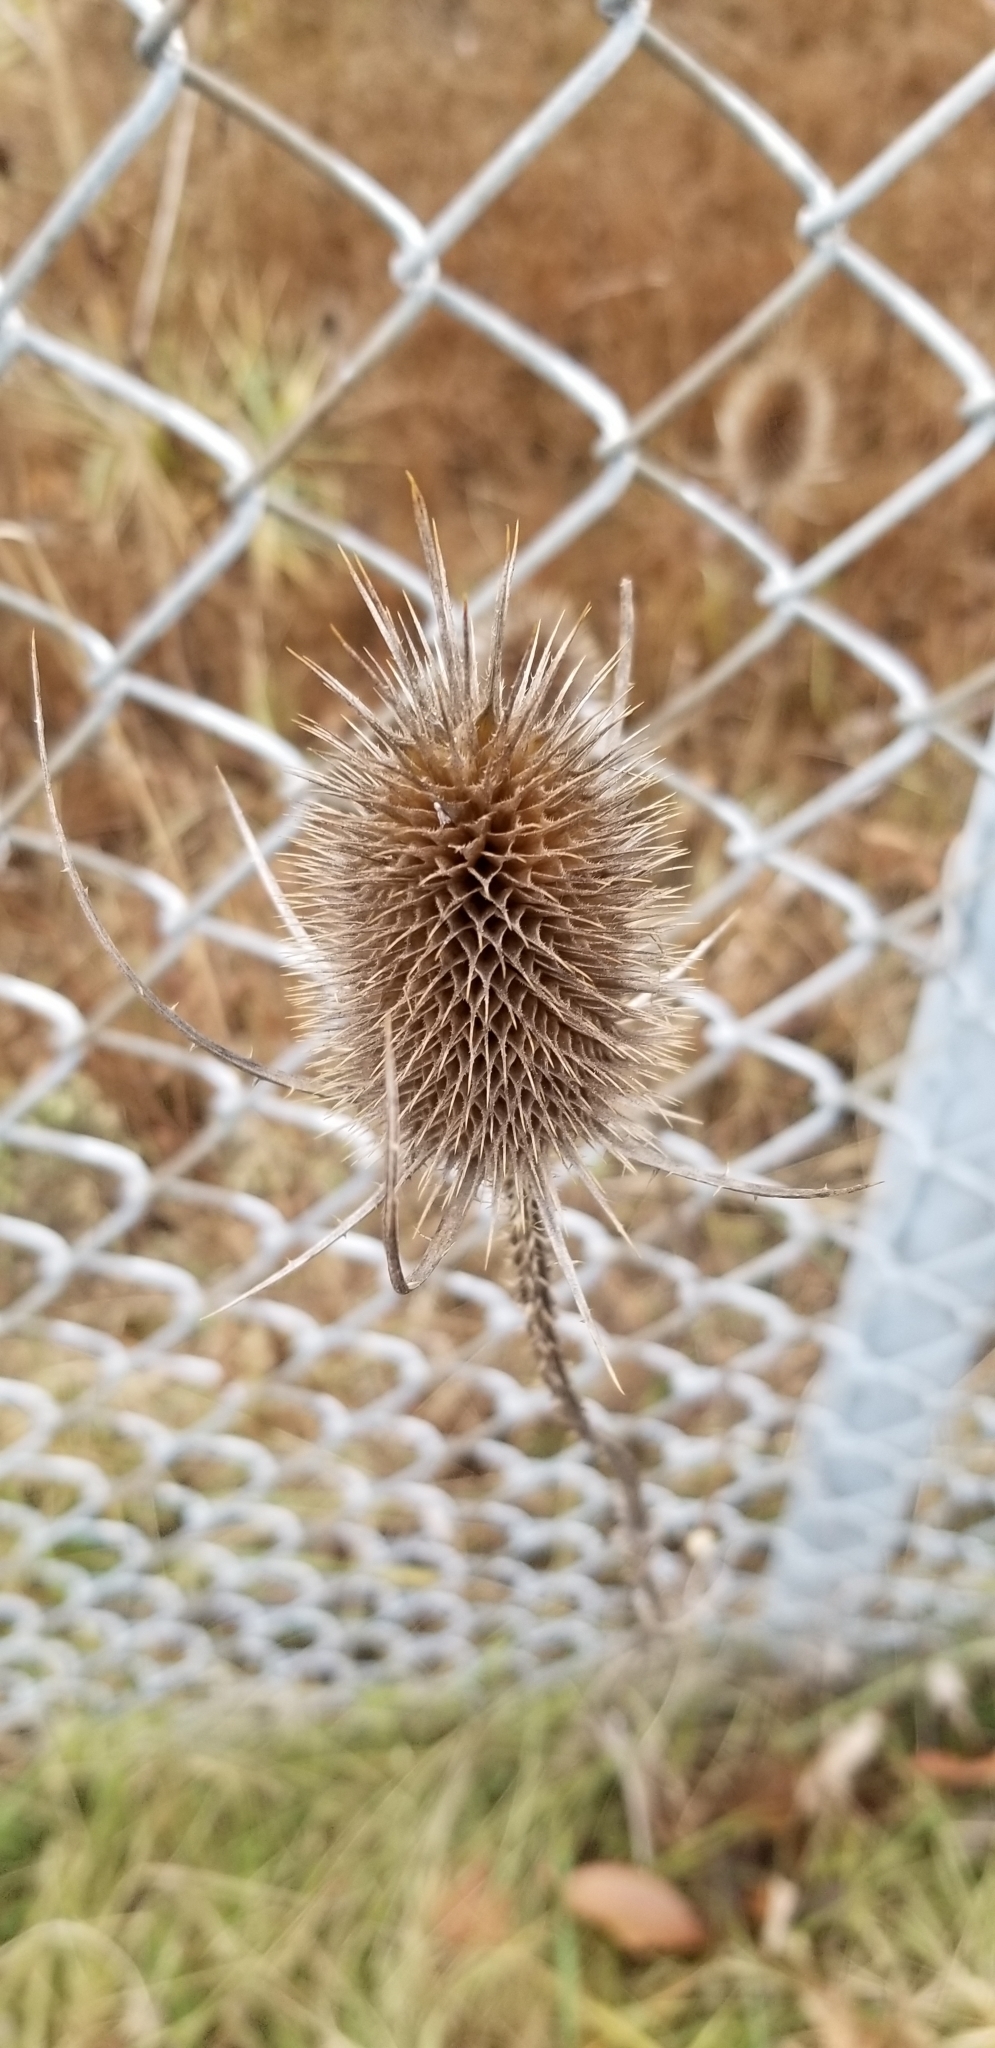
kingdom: Plantae
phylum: Tracheophyta
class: Magnoliopsida
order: Dipsacales
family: Caprifoliaceae
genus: Dipsacus
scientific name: Dipsacus fullonum
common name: Teasel
